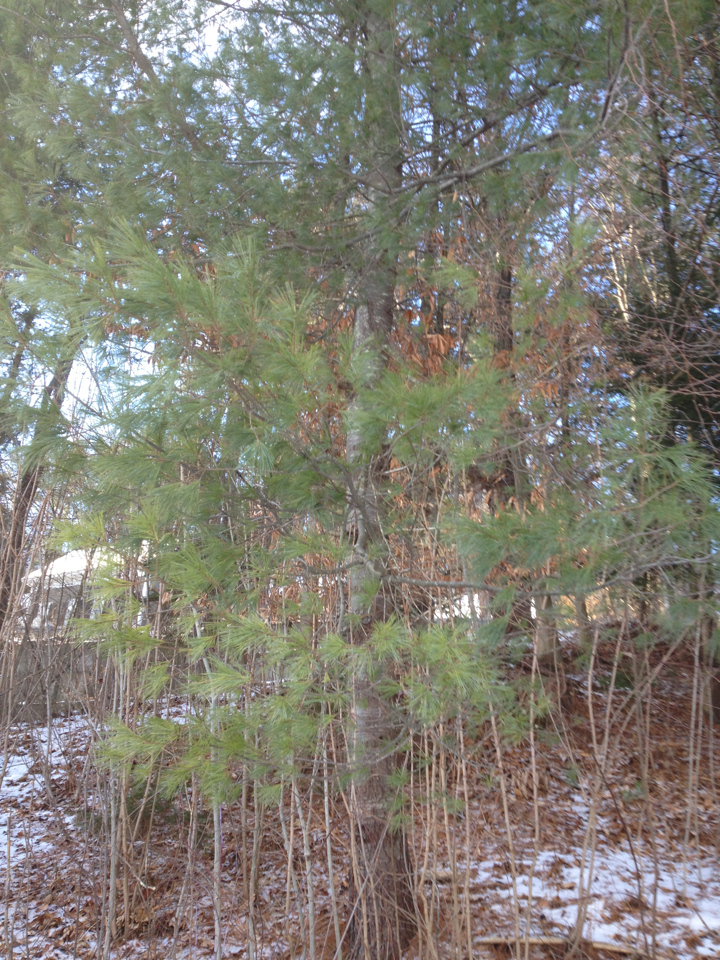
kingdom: Plantae
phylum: Tracheophyta
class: Pinopsida
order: Pinales
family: Pinaceae
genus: Pinus
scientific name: Pinus strobus
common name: Weymouth pine
